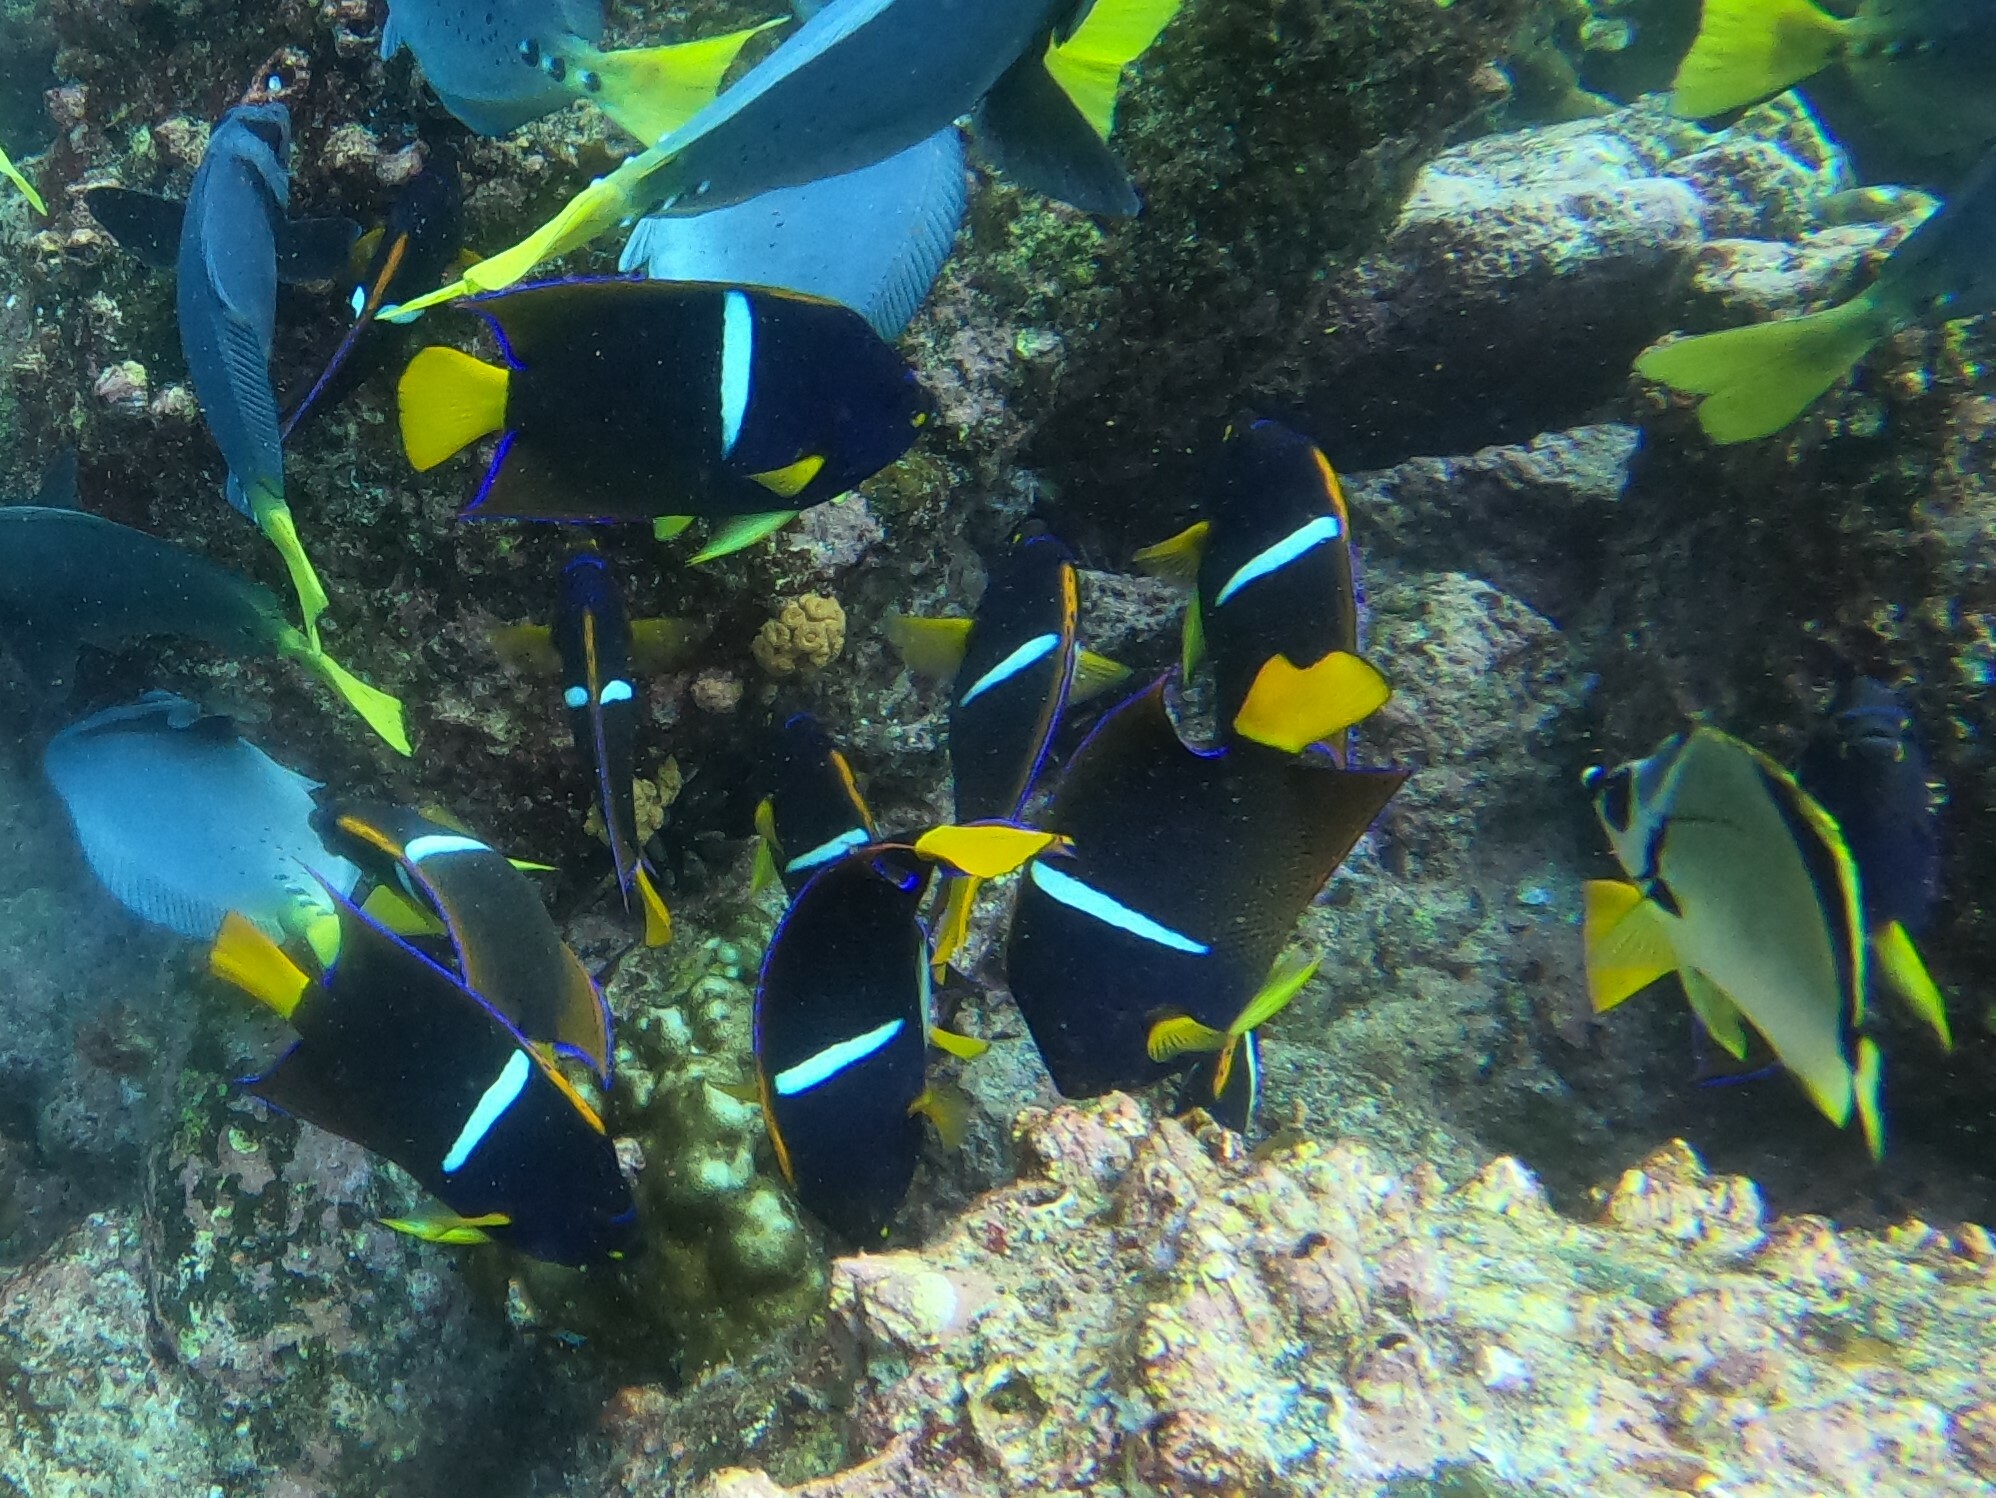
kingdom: Animalia
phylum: Chordata
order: Perciformes
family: Pomacanthidae
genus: Holacanthus
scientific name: Holacanthus passer
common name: King angelfish
